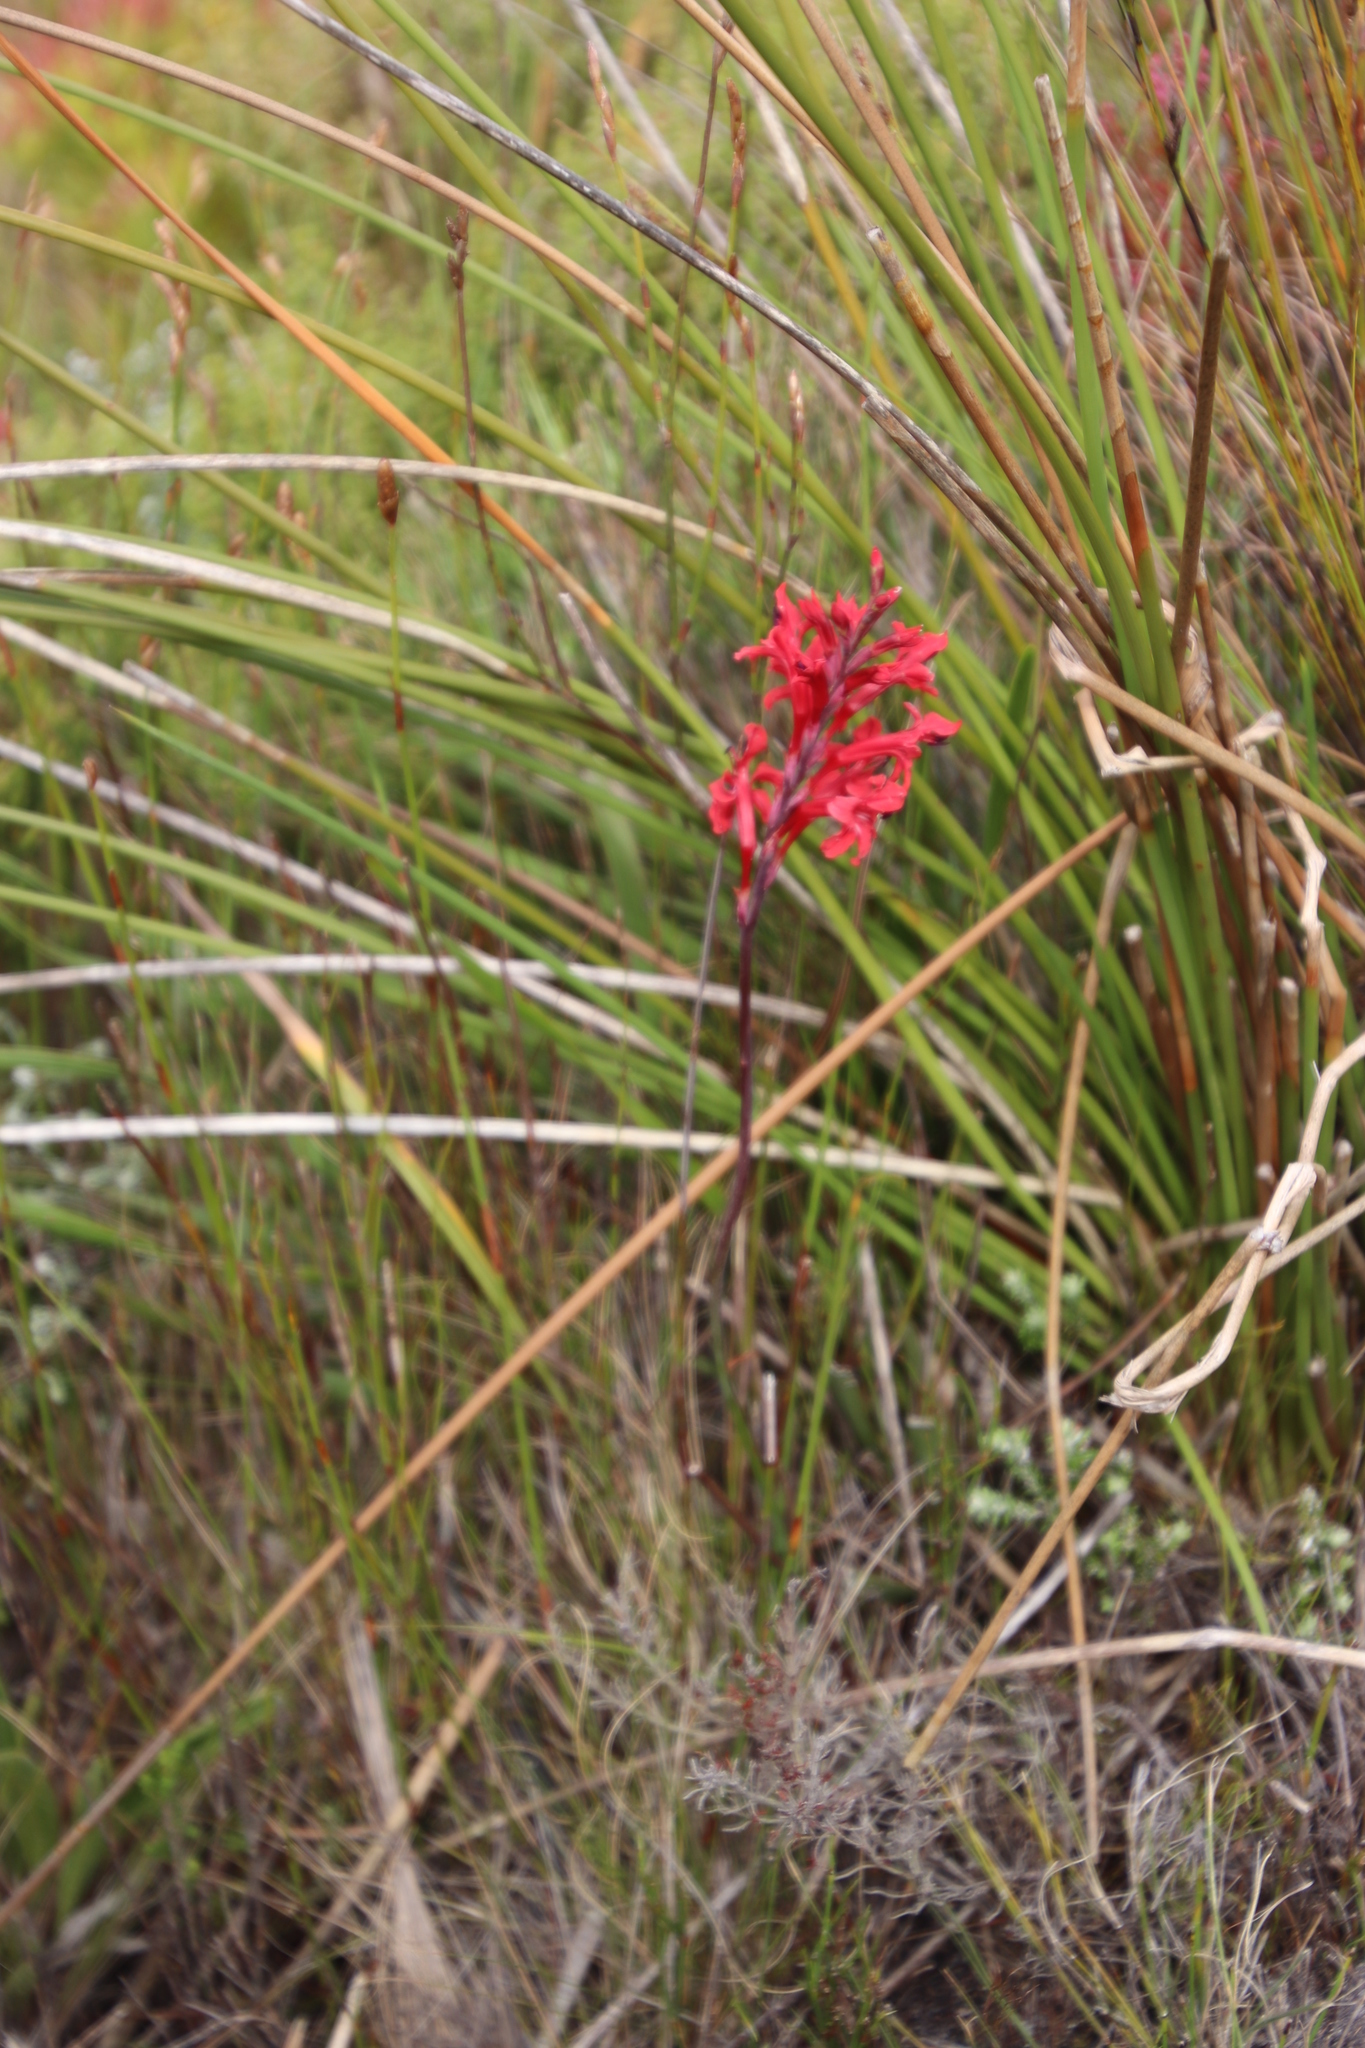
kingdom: Plantae
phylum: Tracheophyta
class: Liliopsida
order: Asparagales
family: Iridaceae
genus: Tritoniopsis
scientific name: Tritoniopsis pulchra
